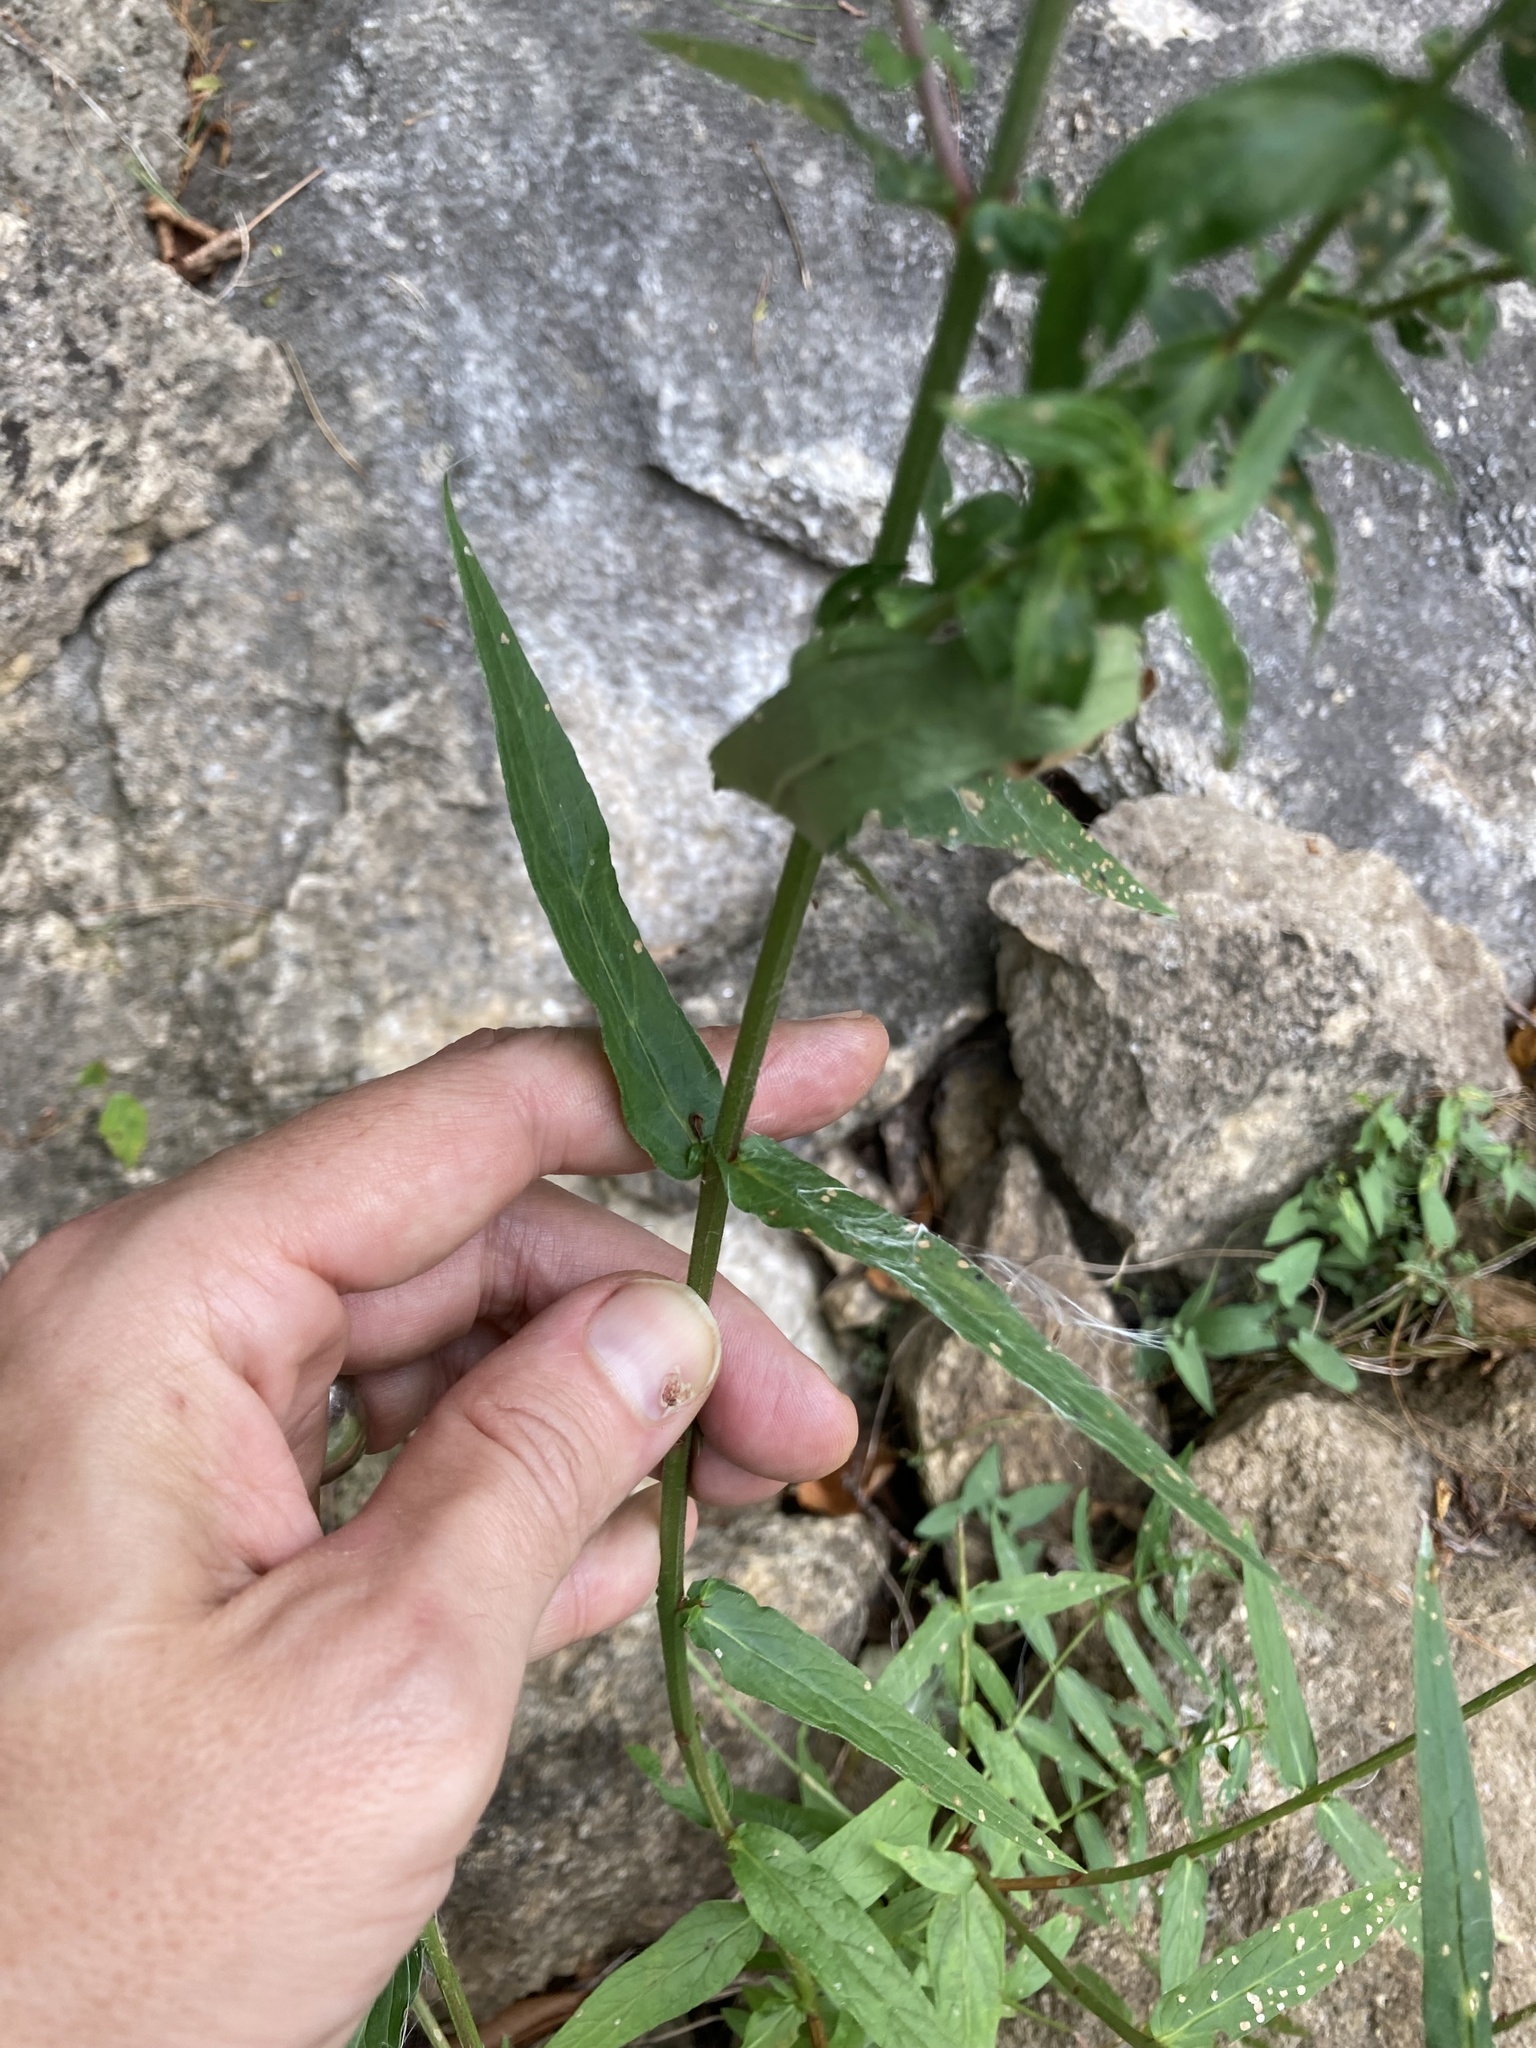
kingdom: Plantae
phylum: Tracheophyta
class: Magnoliopsida
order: Myrtales
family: Lythraceae
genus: Lythrum
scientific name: Lythrum salicaria
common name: Purple loosestrife
